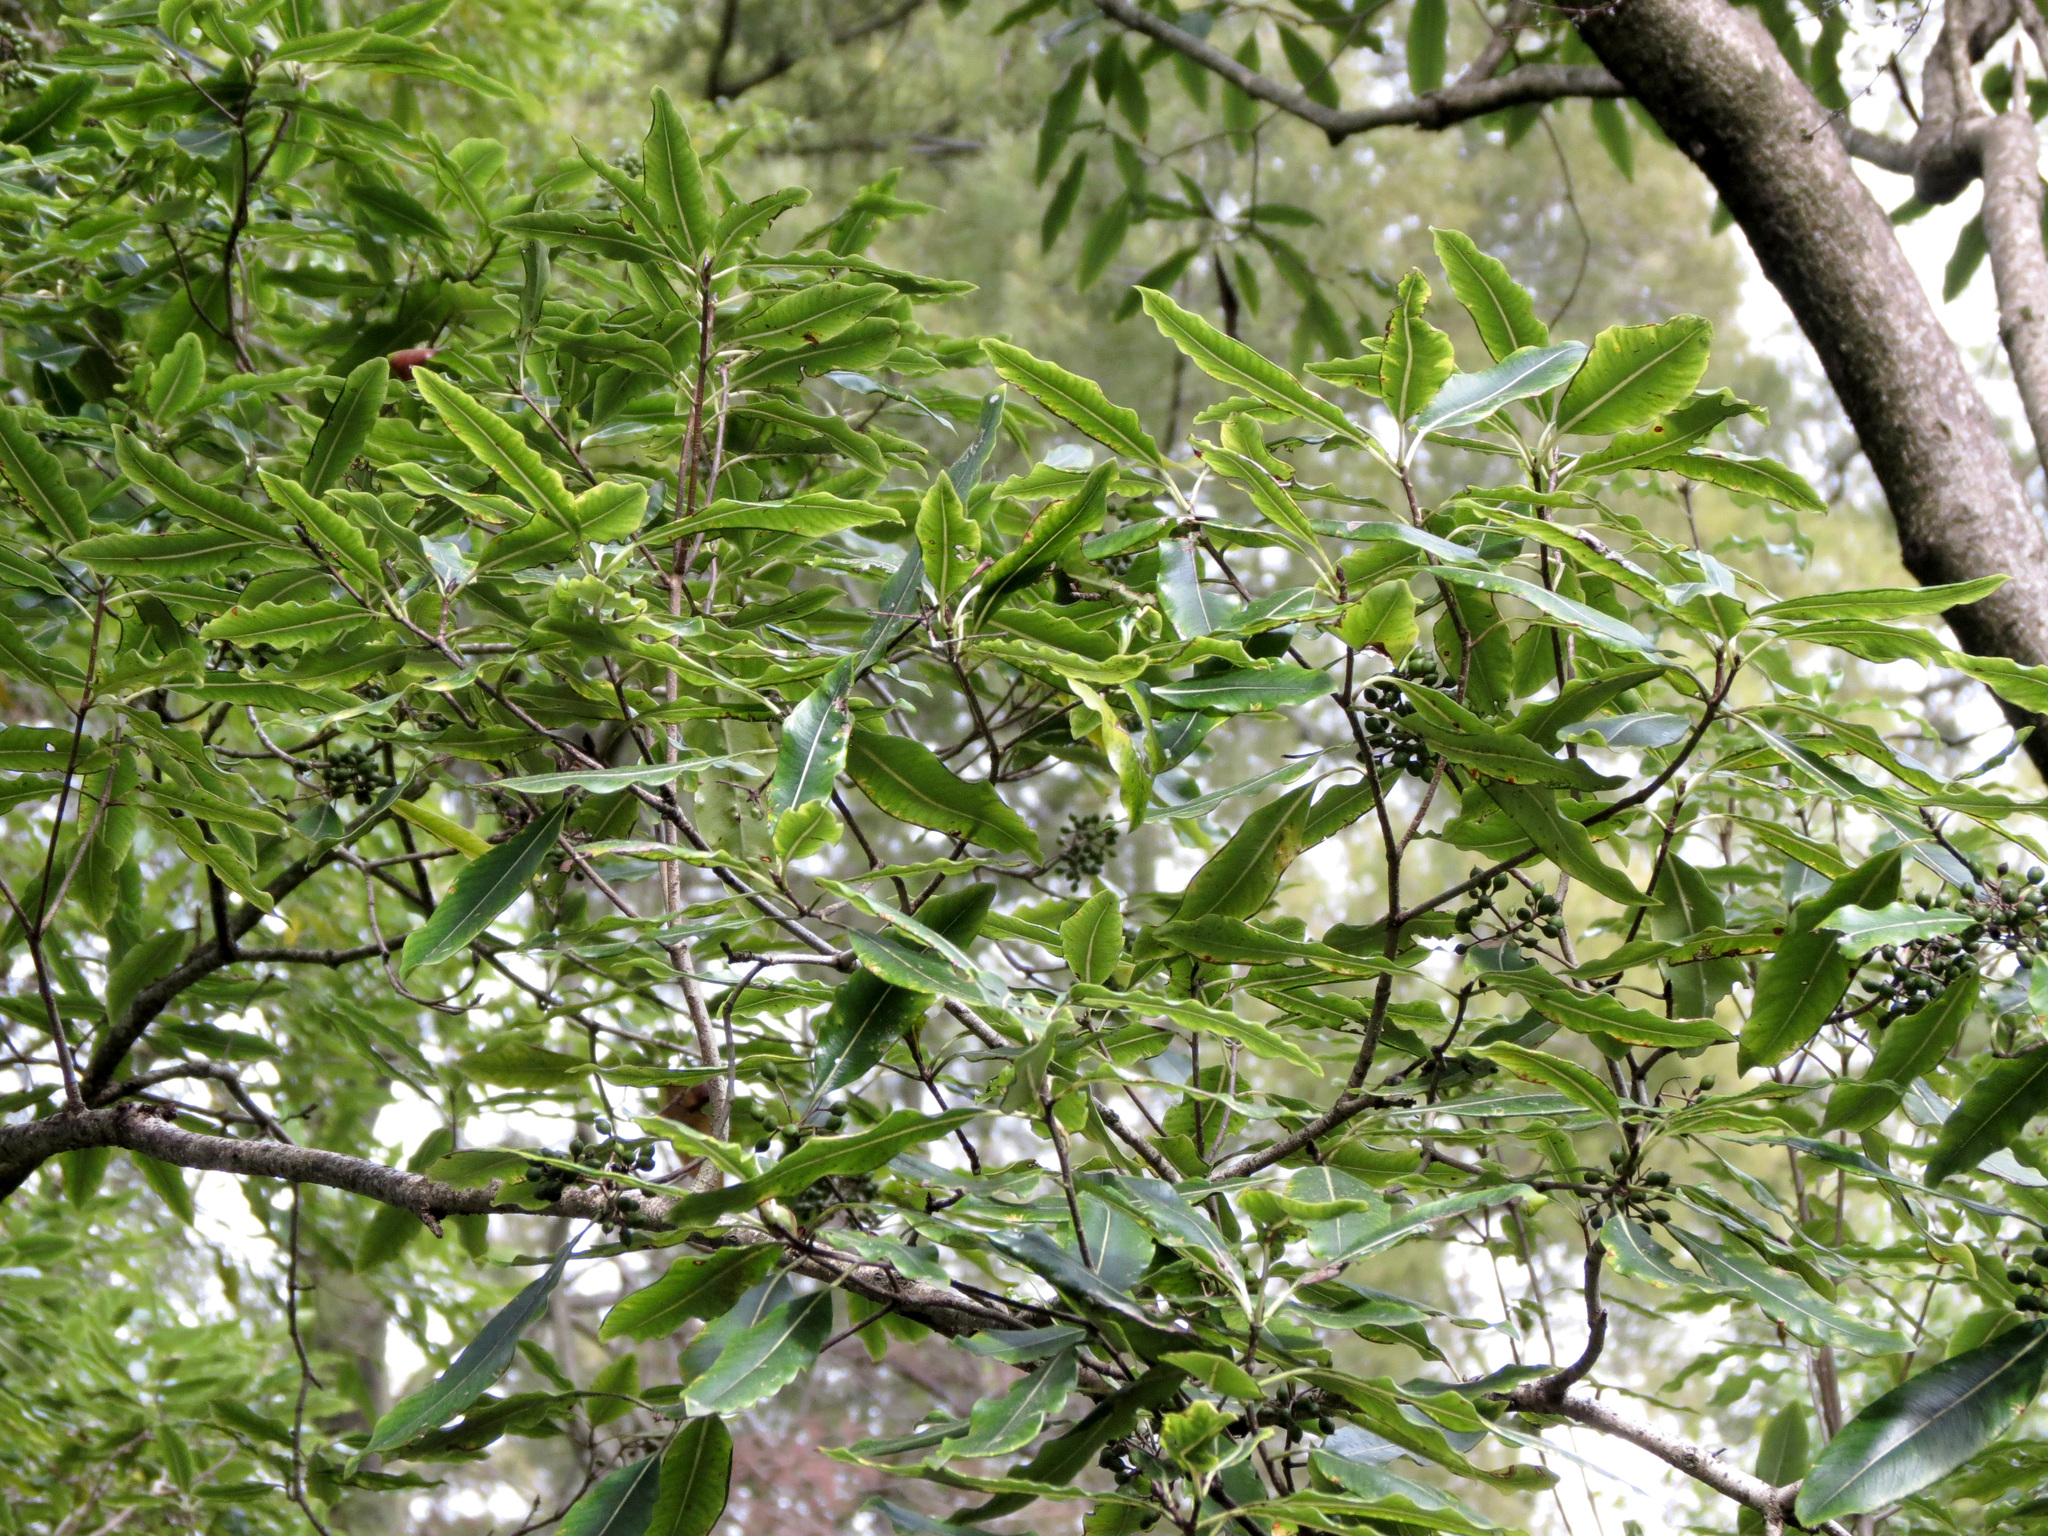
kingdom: Plantae
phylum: Tracheophyta
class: Magnoliopsida
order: Apiales
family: Pittosporaceae
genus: Pittosporum
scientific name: Pittosporum eugenioides
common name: Lemonwood
